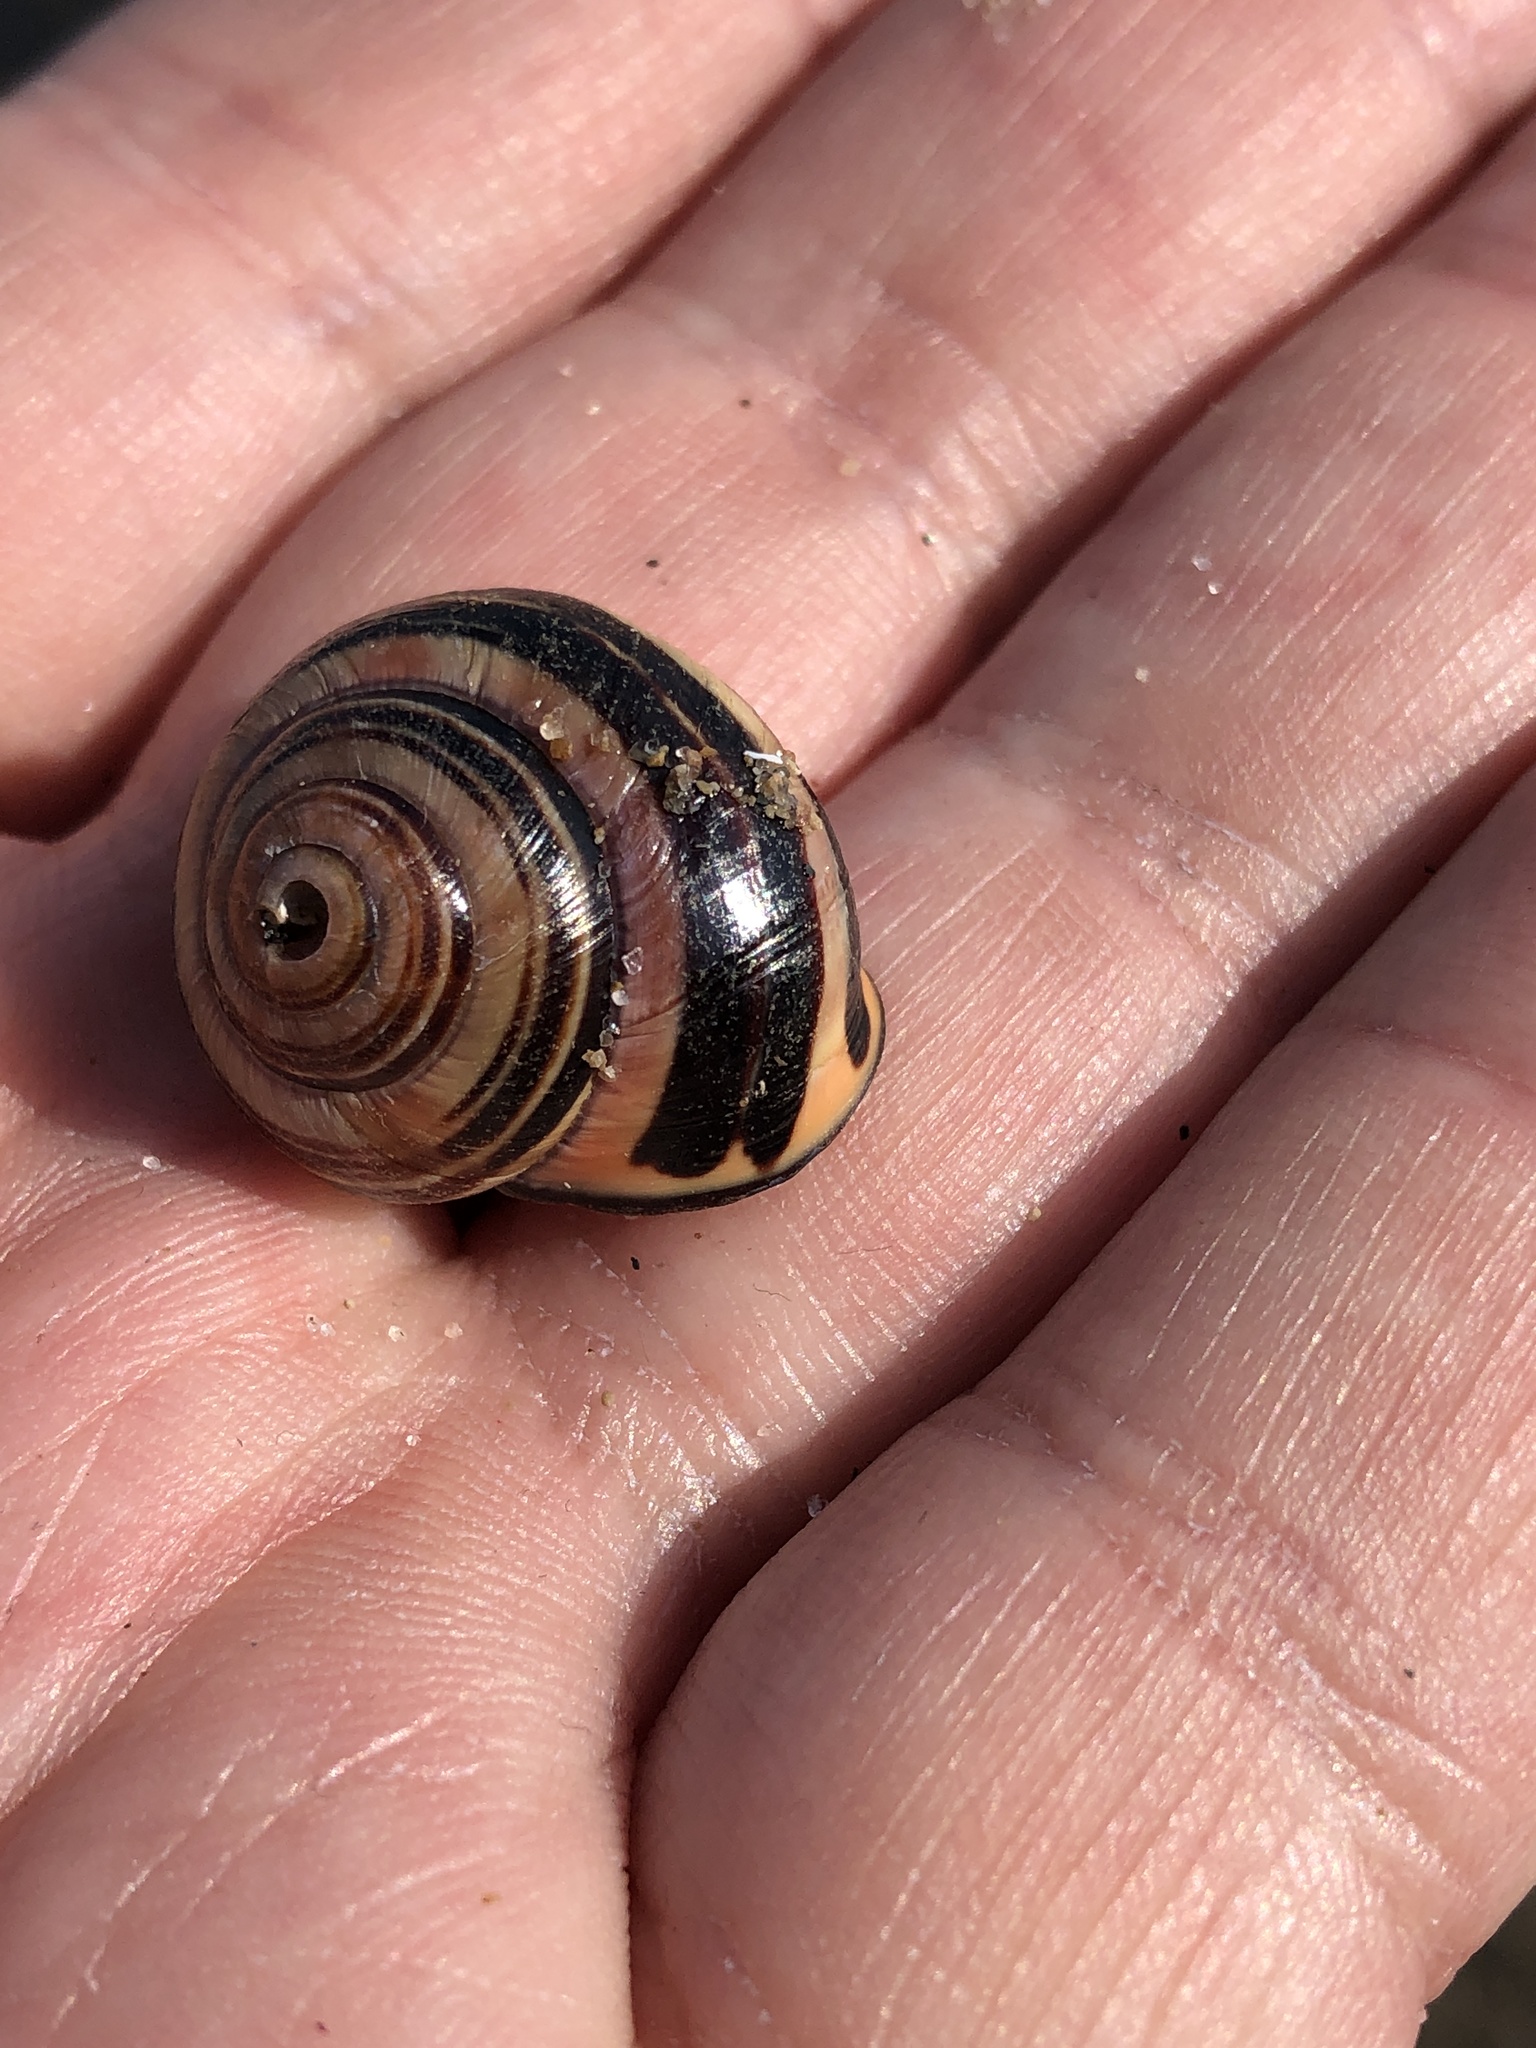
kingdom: Animalia
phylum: Mollusca
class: Gastropoda
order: Stylommatophora
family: Helicidae
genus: Cepaea
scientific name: Cepaea nemoralis
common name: Grovesnail
